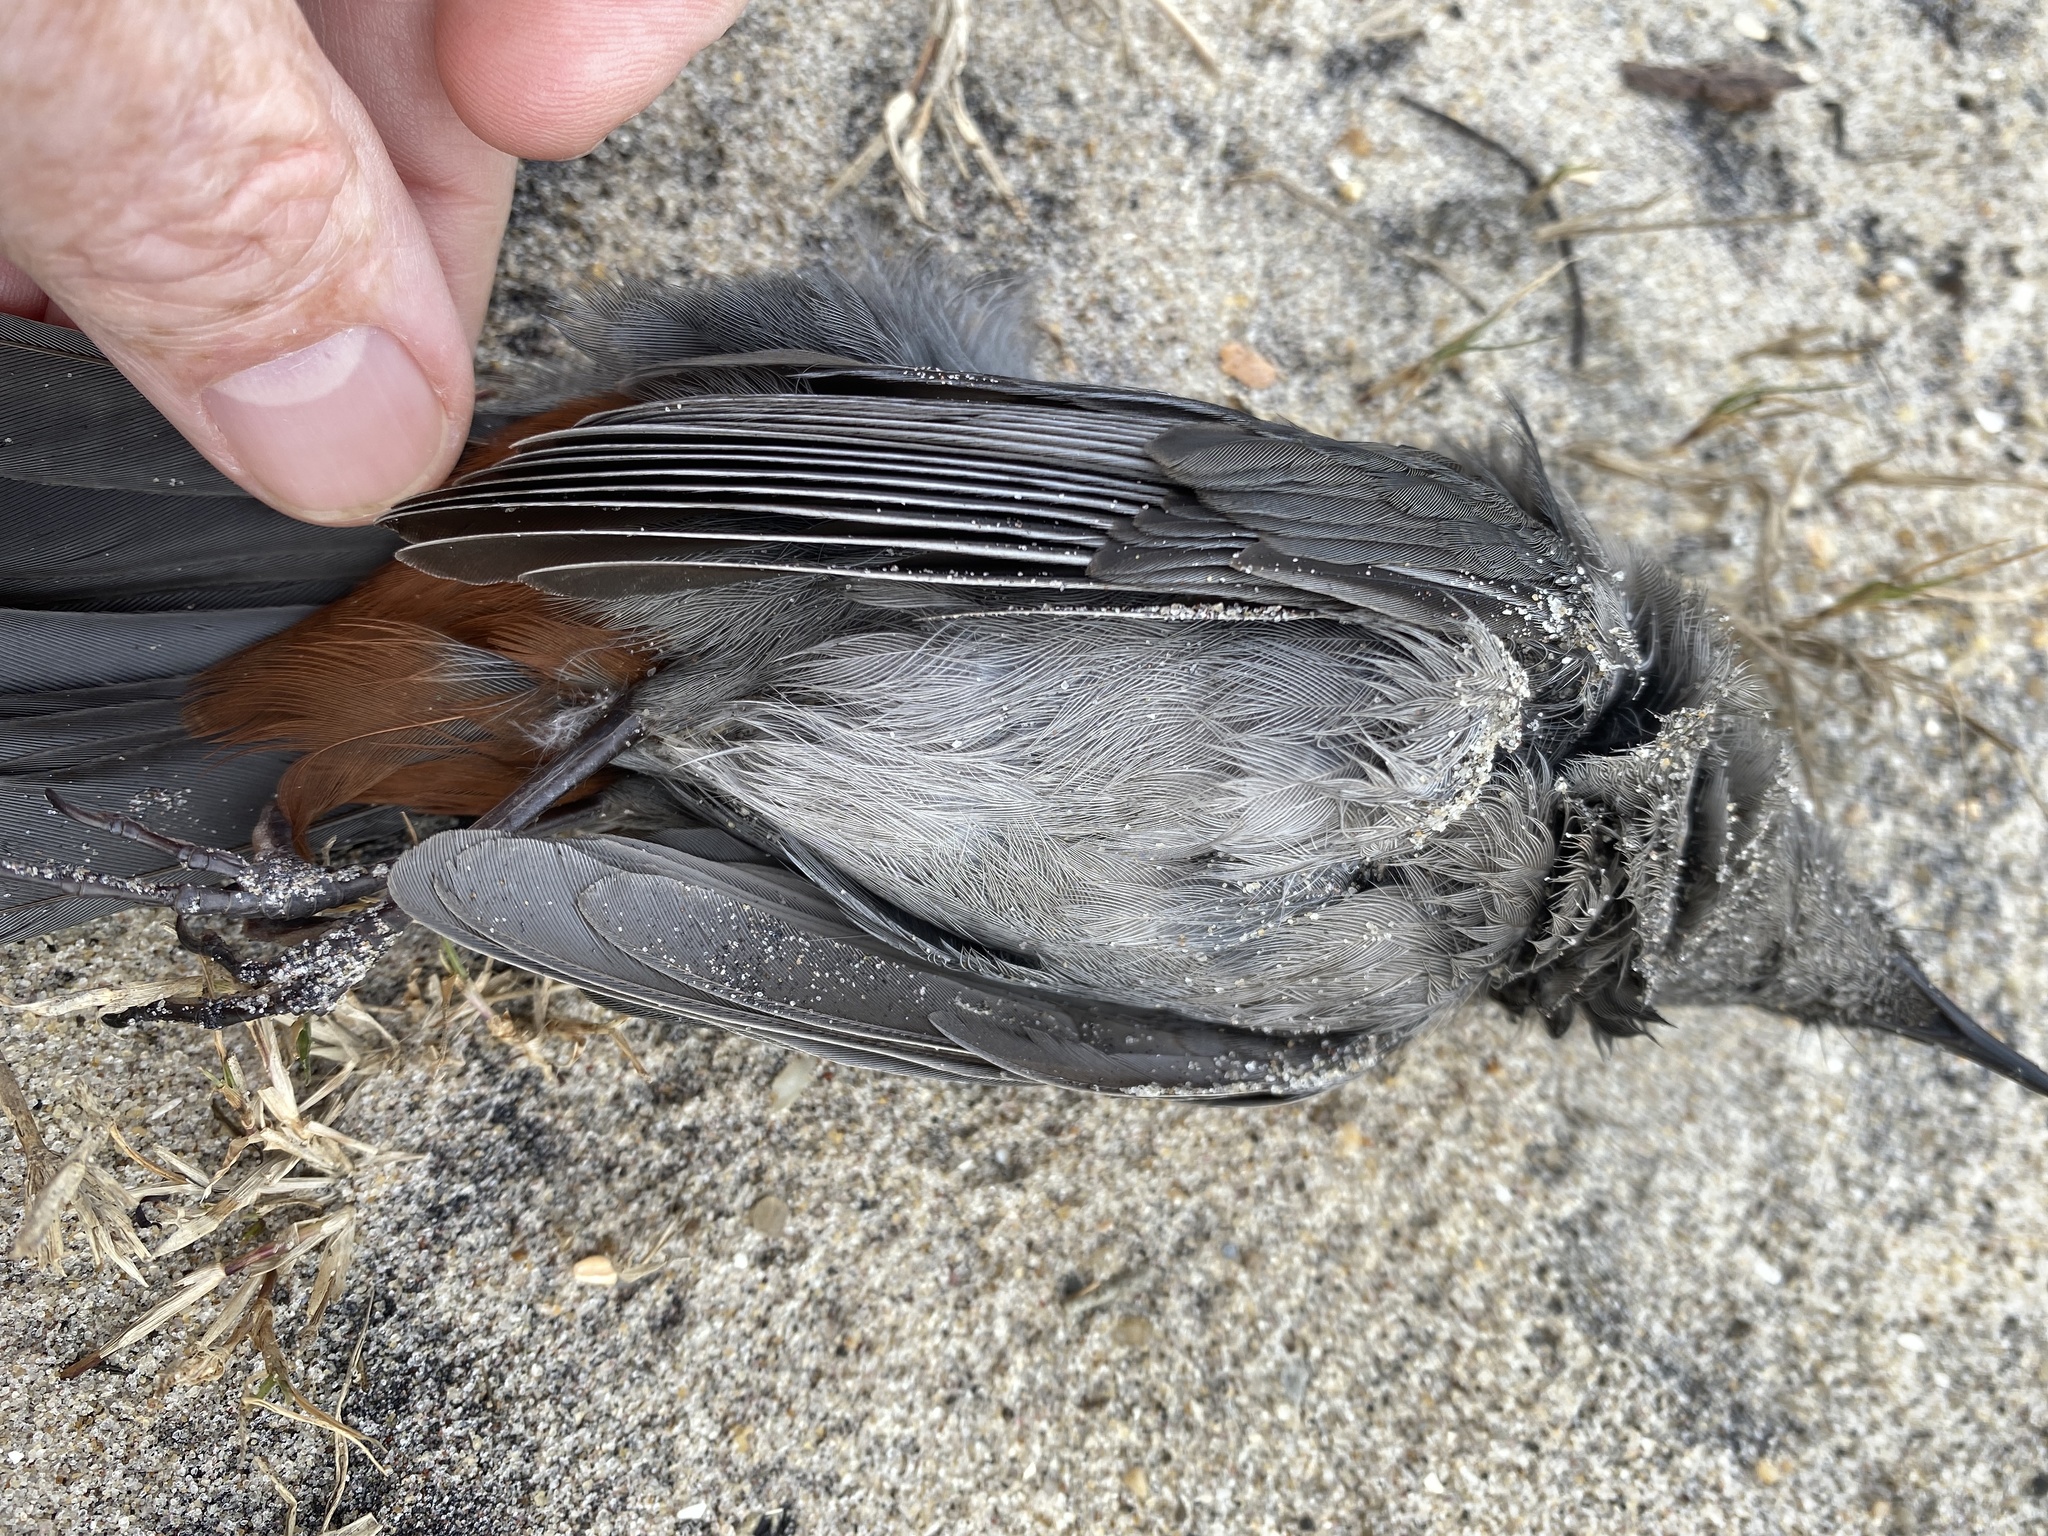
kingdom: Animalia
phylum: Chordata
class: Aves
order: Passeriformes
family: Mimidae
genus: Dumetella
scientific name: Dumetella carolinensis
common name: Gray catbird
